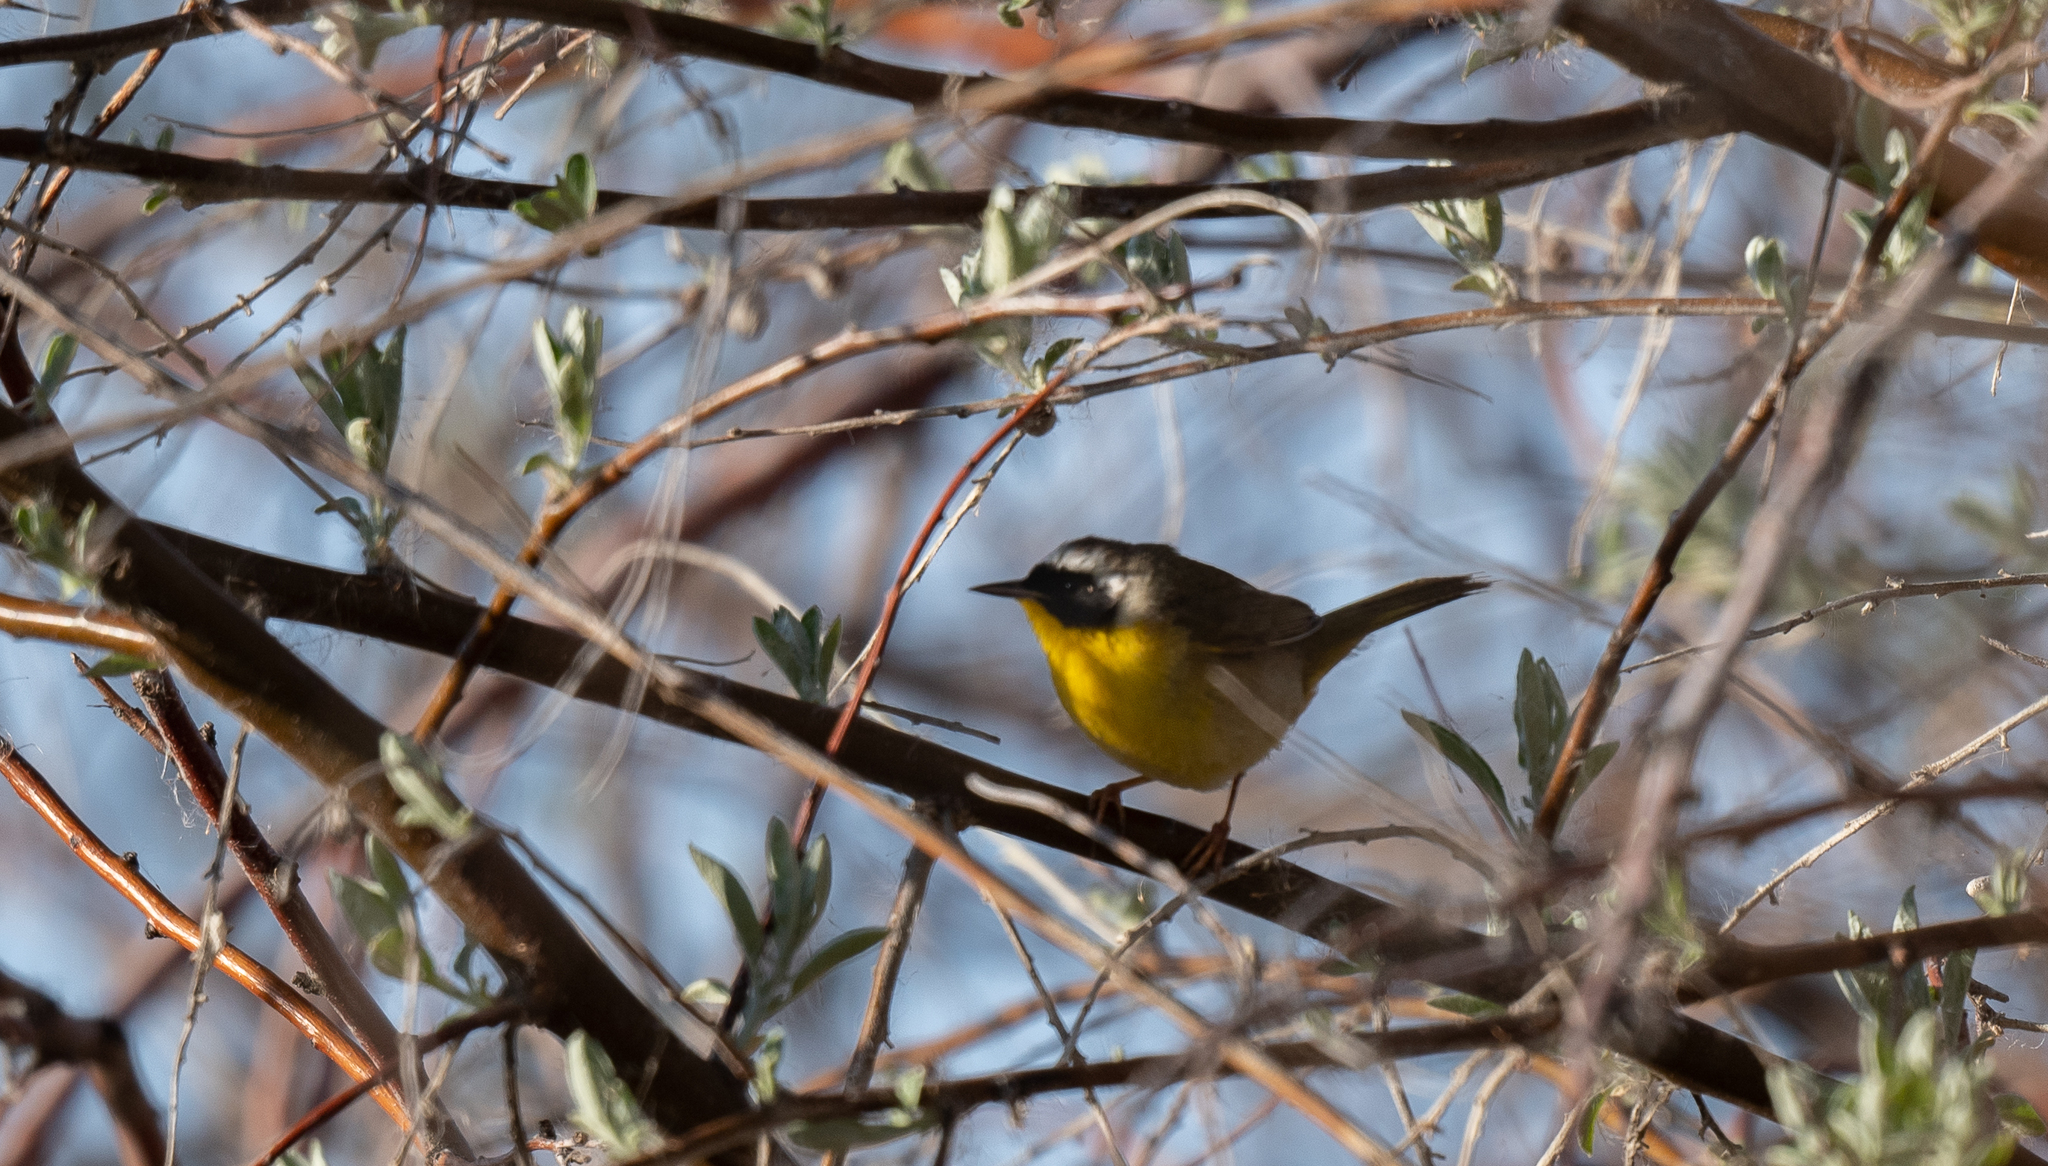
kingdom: Animalia
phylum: Chordata
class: Aves
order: Passeriformes
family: Parulidae
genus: Geothlypis
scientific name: Geothlypis trichas
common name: Common yellowthroat
